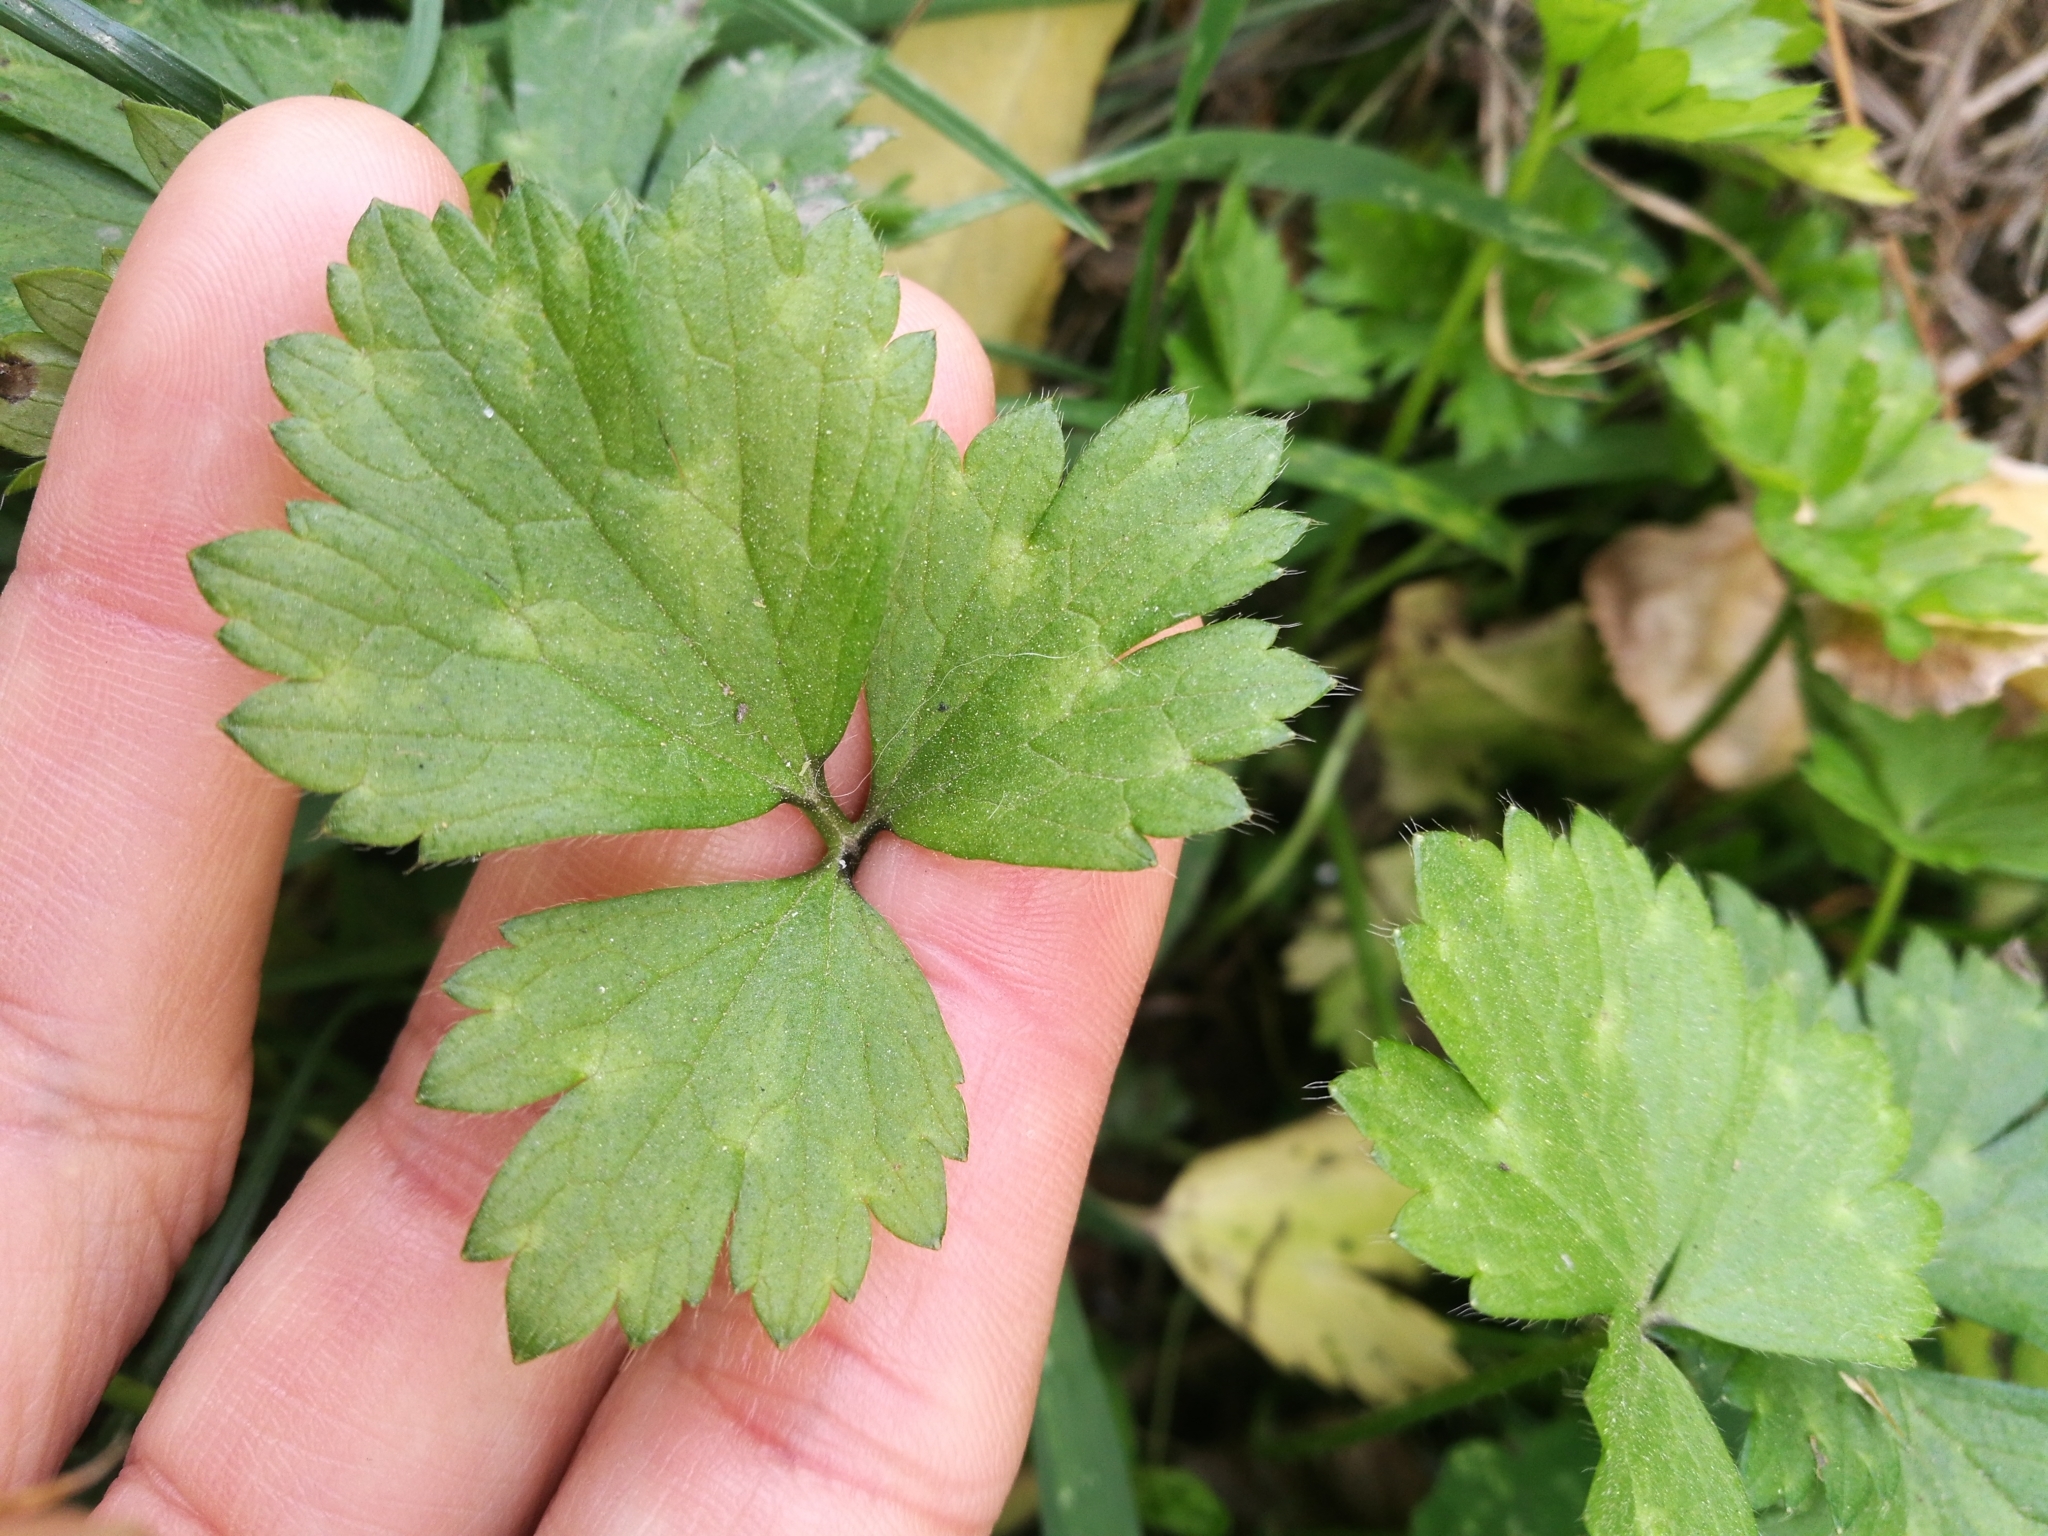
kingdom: Plantae
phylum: Tracheophyta
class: Magnoliopsida
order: Ranunculales
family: Ranunculaceae
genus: Ranunculus
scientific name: Ranunculus repens
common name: Creeping buttercup
